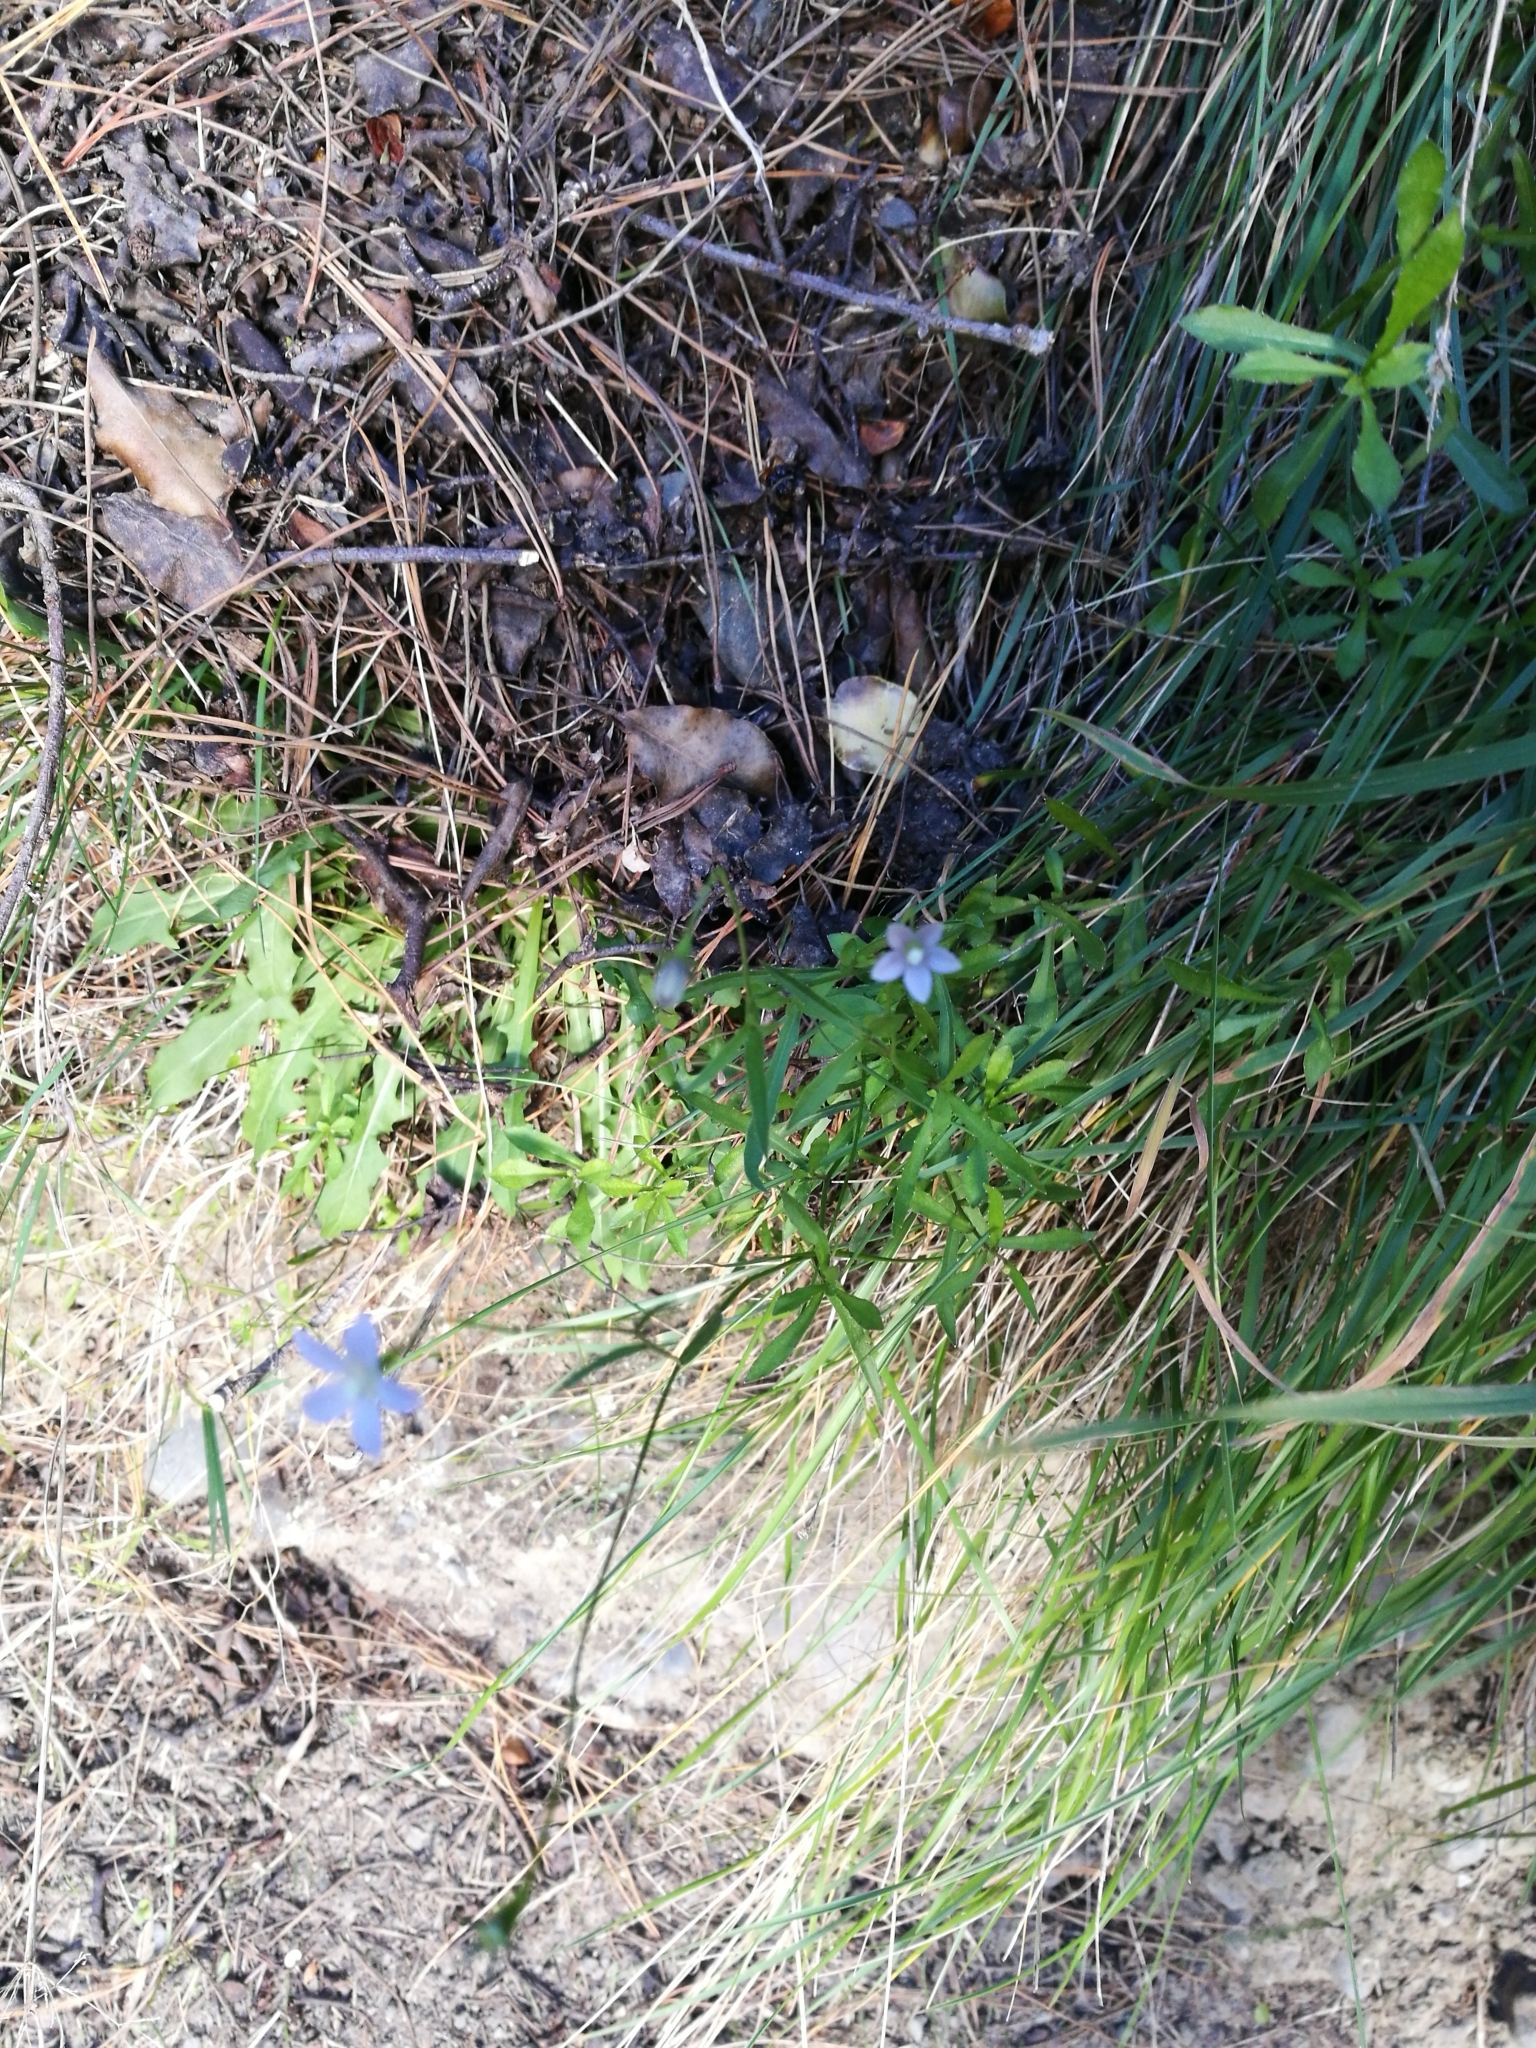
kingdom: Plantae
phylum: Tracheophyta
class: Magnoliopsida
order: Asterales
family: Campanulaceae
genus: Wahlenbergia
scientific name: Wahlenbergia albomarginata
